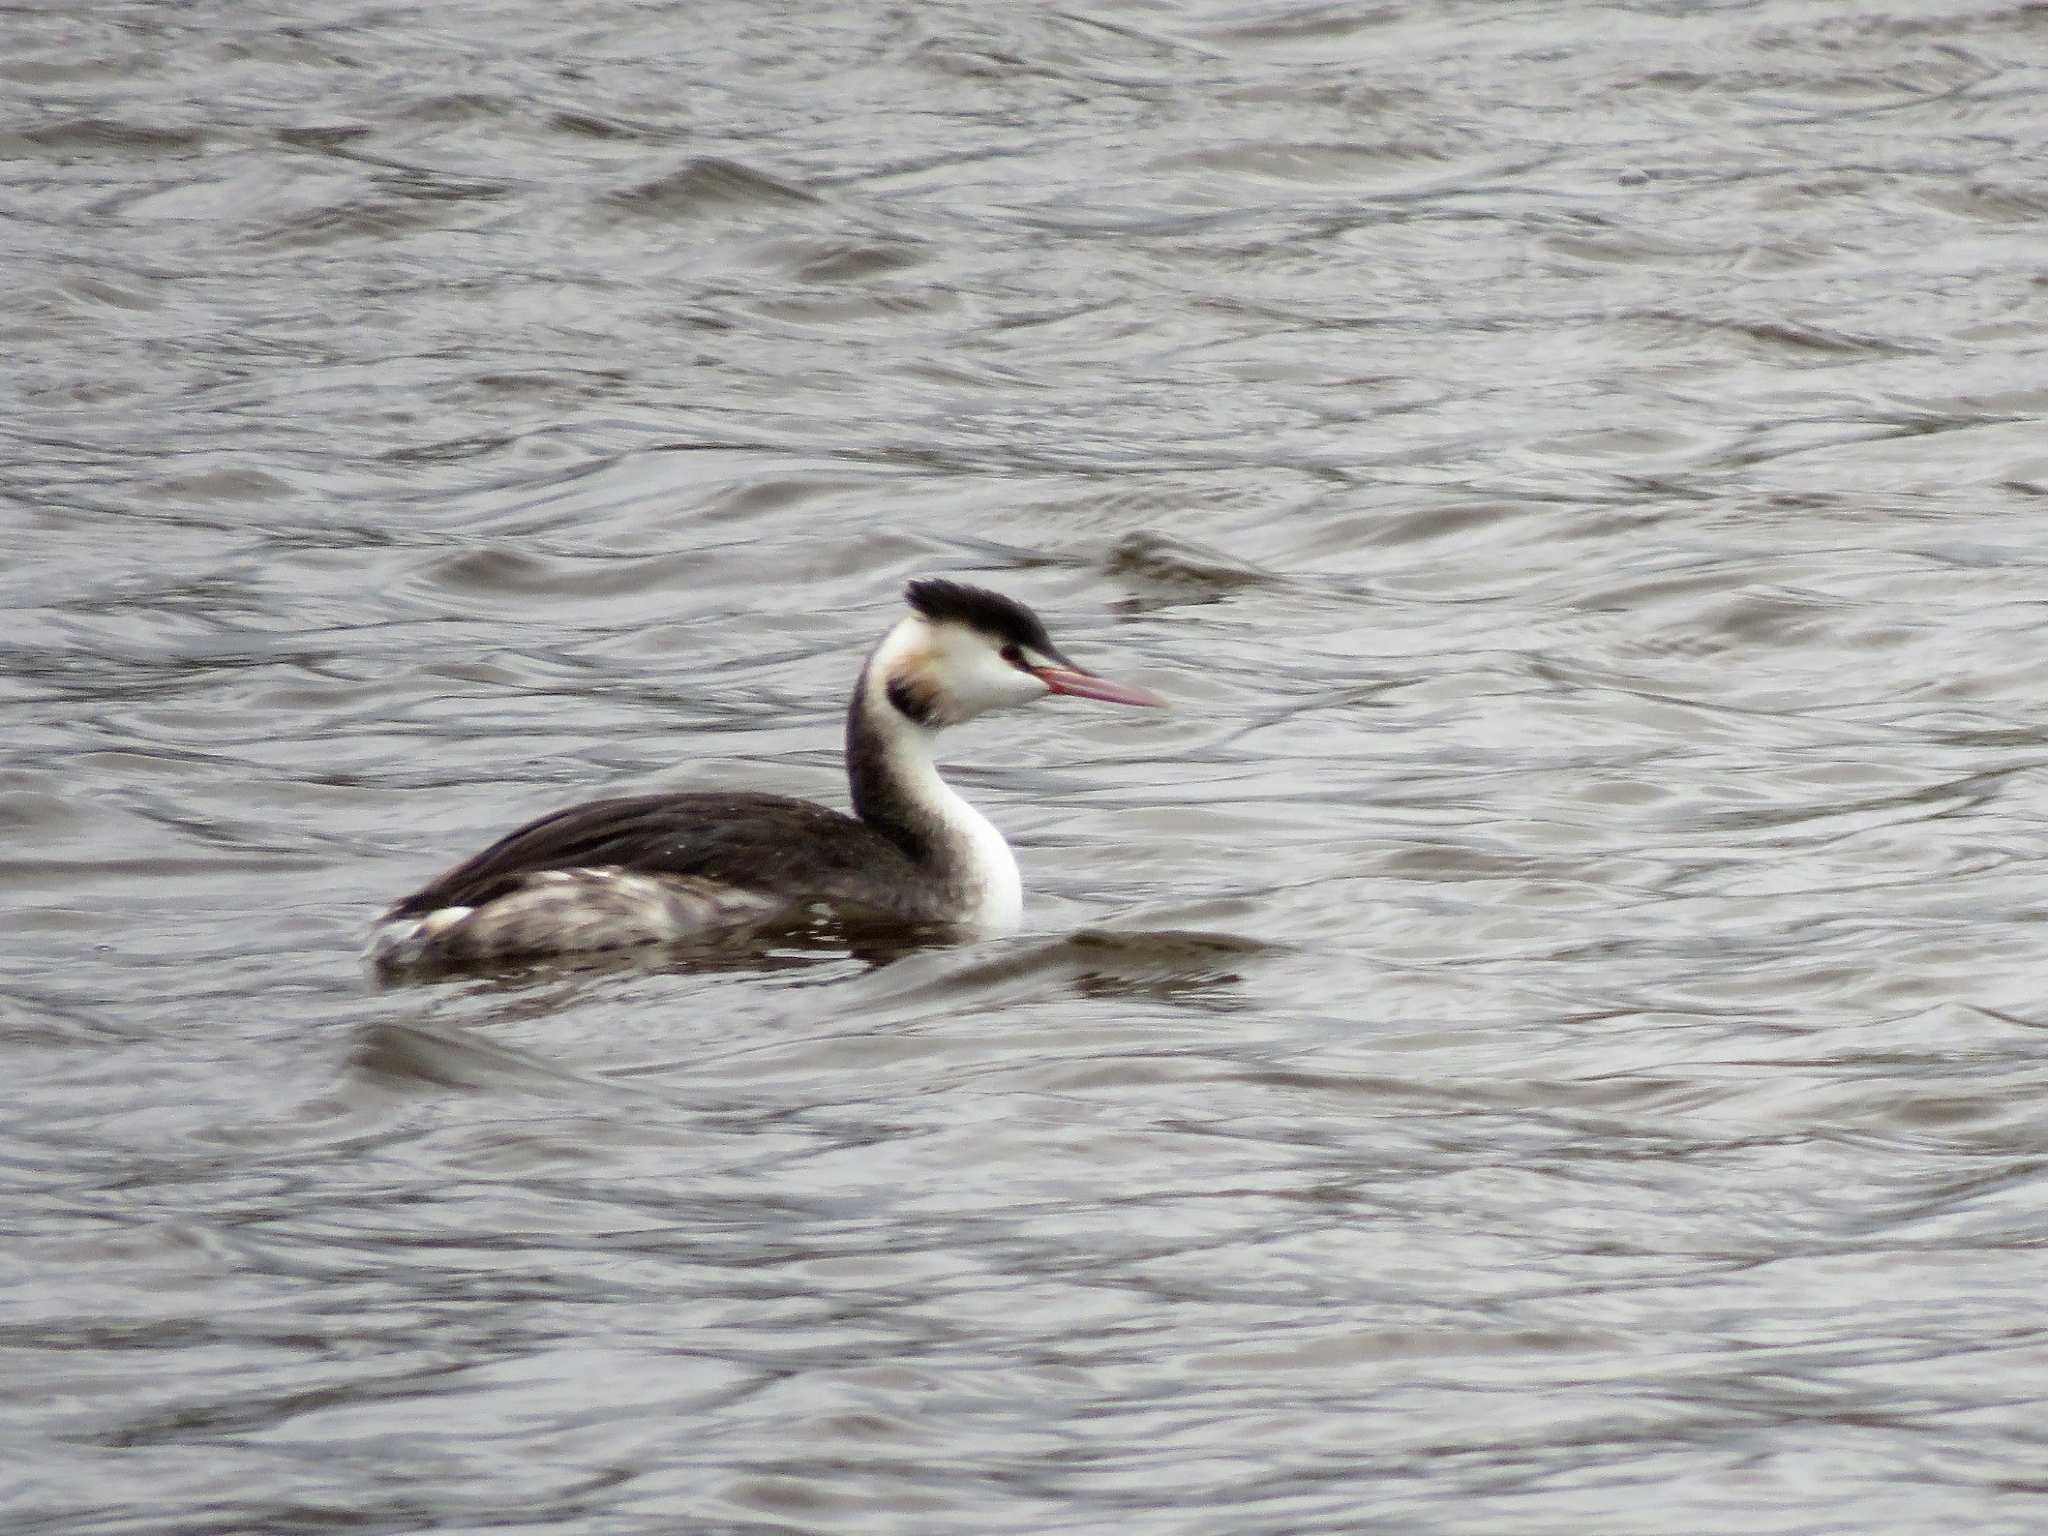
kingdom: Animalia
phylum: Chordata
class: Aves
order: Podicipediformes
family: Podicipedidae
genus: Podiceps
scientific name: Podiceps cristatus
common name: Great crested grebe
